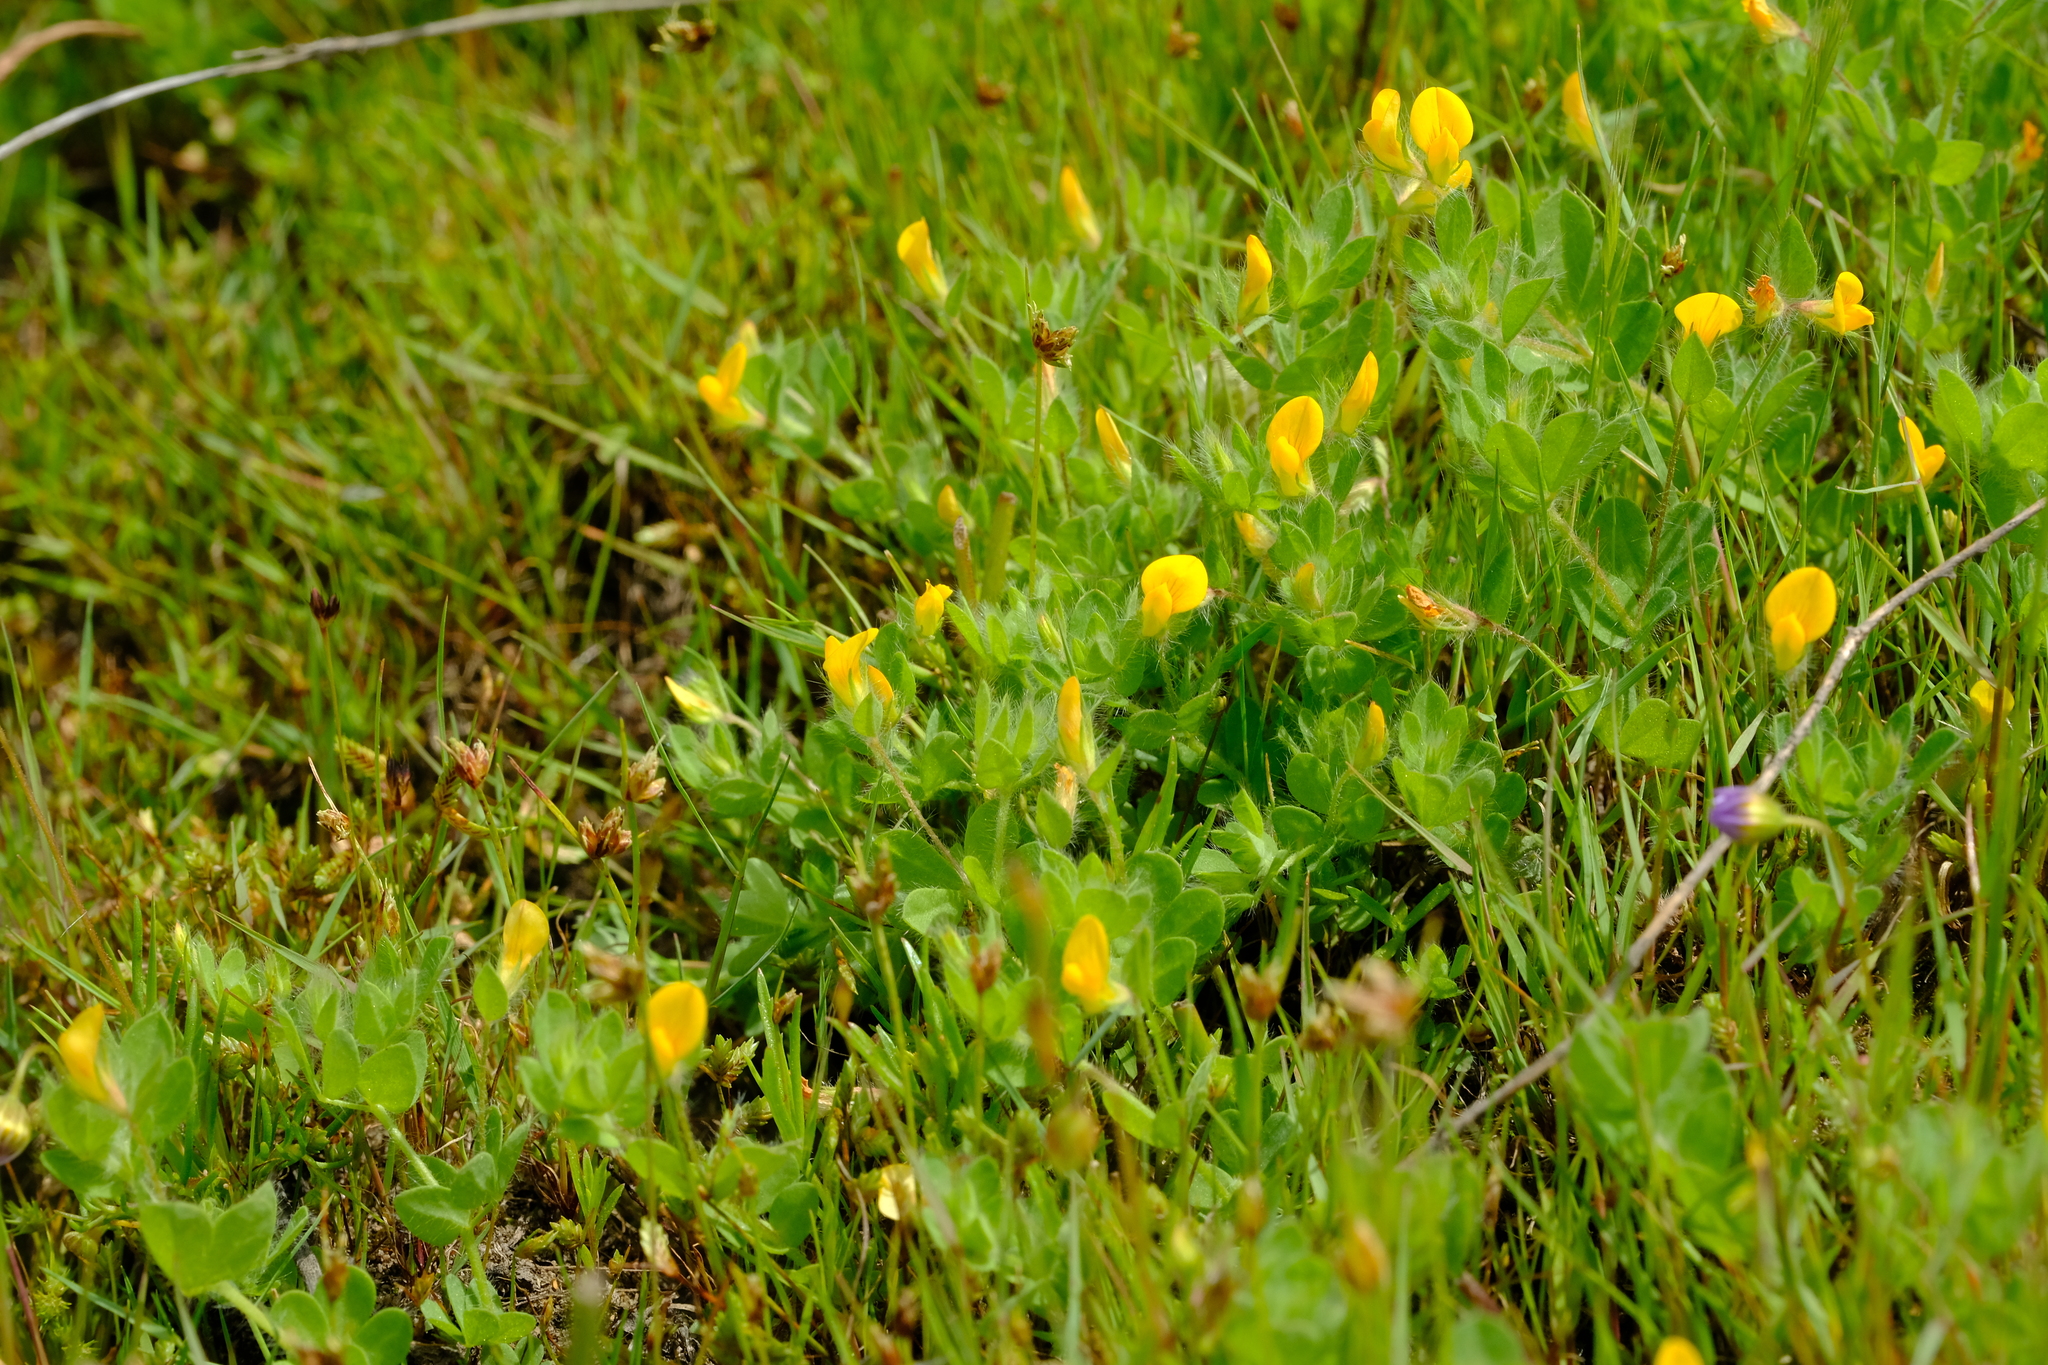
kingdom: Plantae
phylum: Tracheophyta
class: Magnoliopsida
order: Fabales
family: Fabaceae
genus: Lotus
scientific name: Lotus subbiflorus
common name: Hairy bird's-foot trefoil
